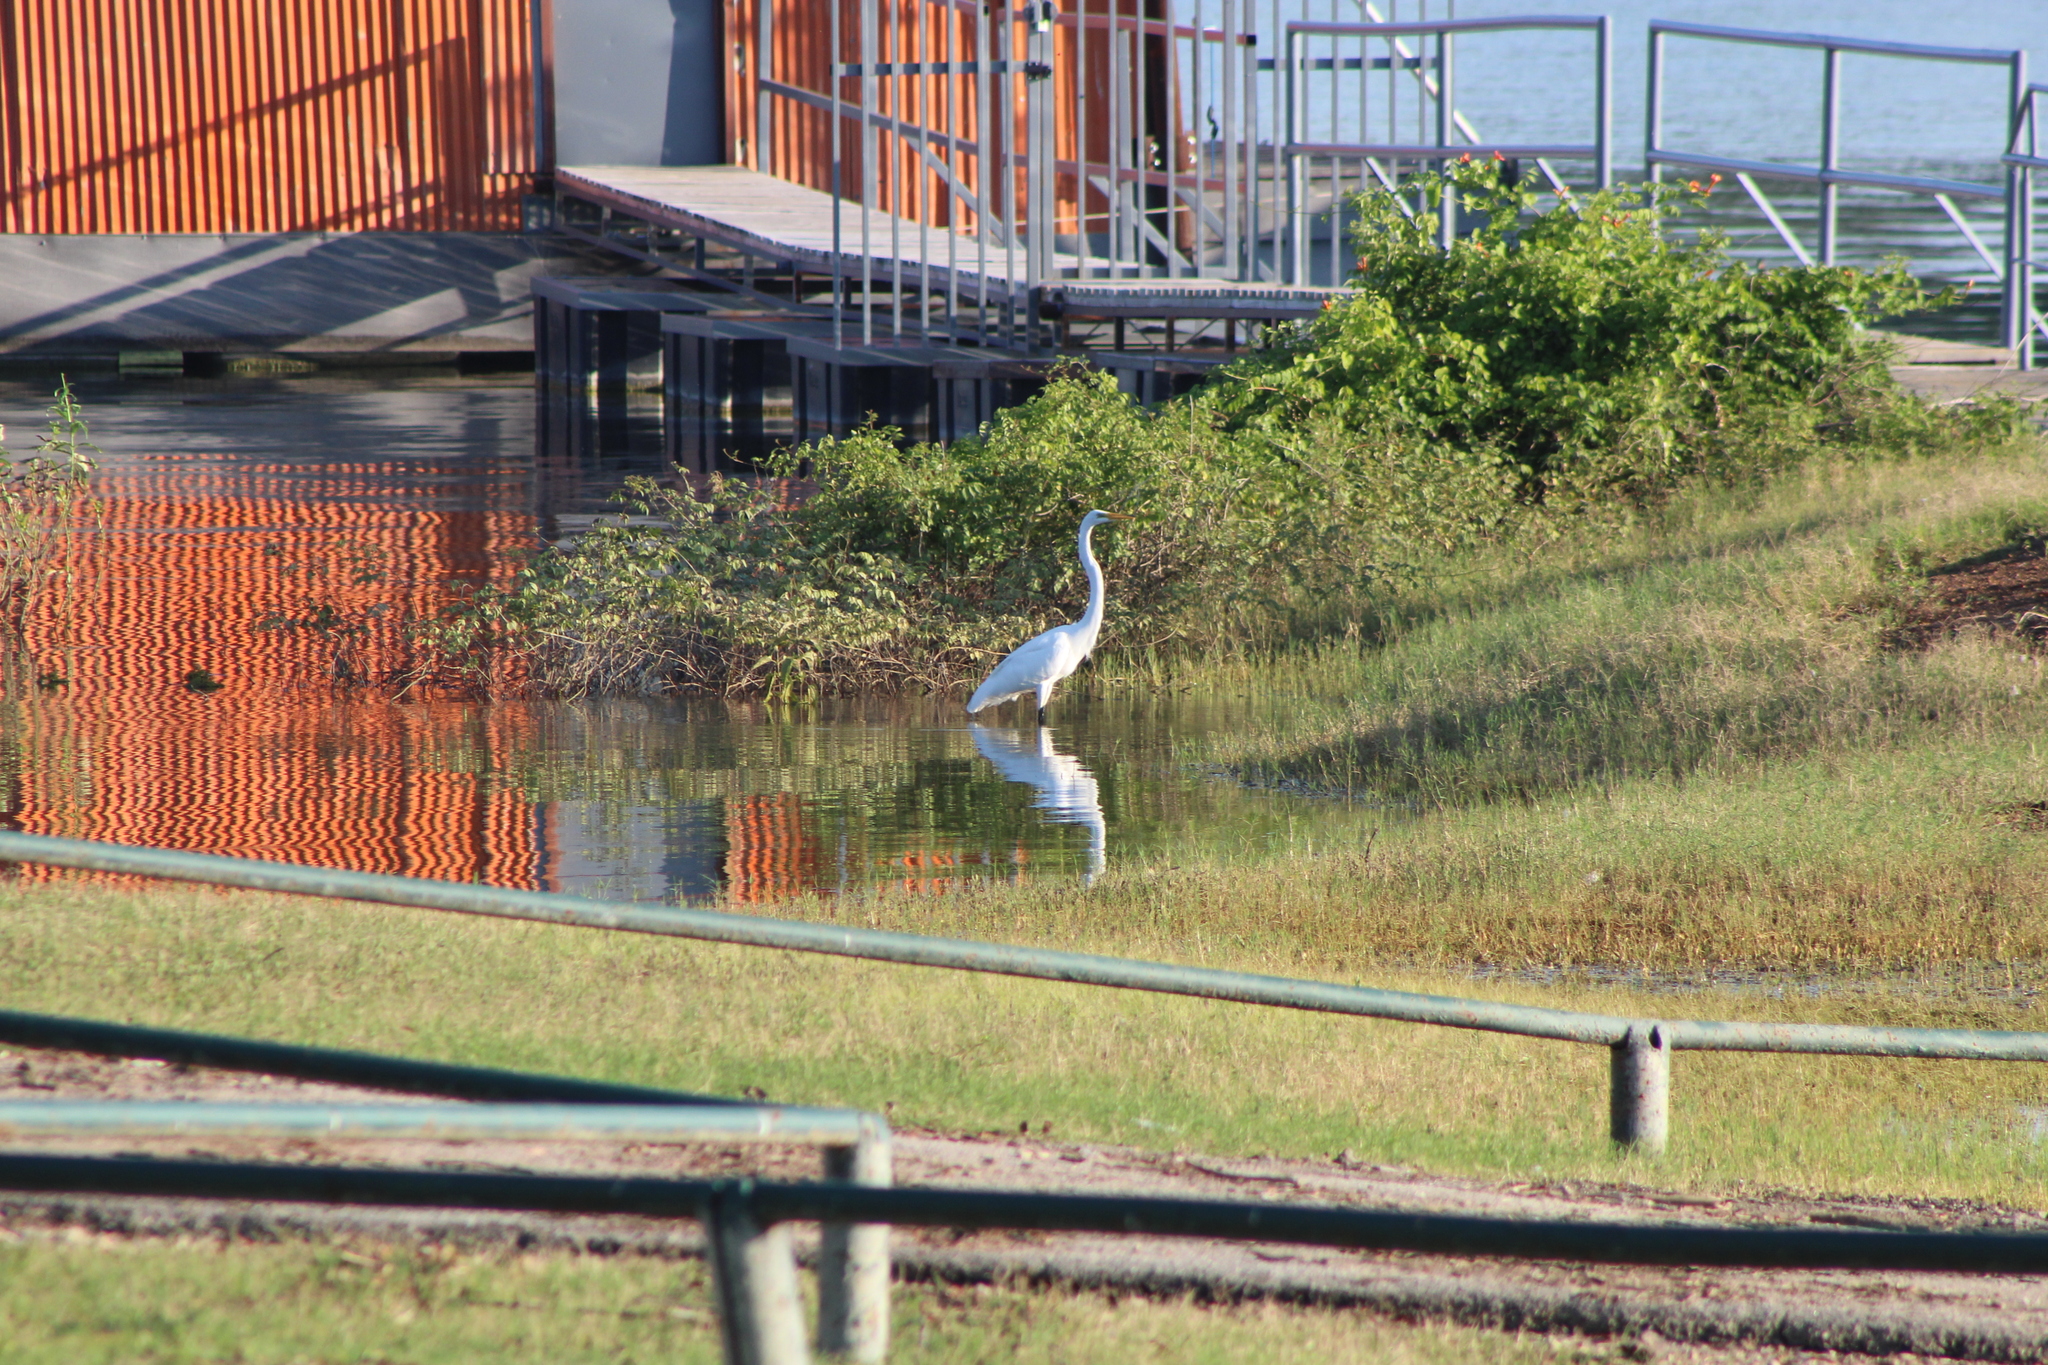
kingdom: Animalia
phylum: Chordata
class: Aves
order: Pelecaniformes
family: Ardeidae
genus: Ardea
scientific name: Ardea alba
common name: Great egret
